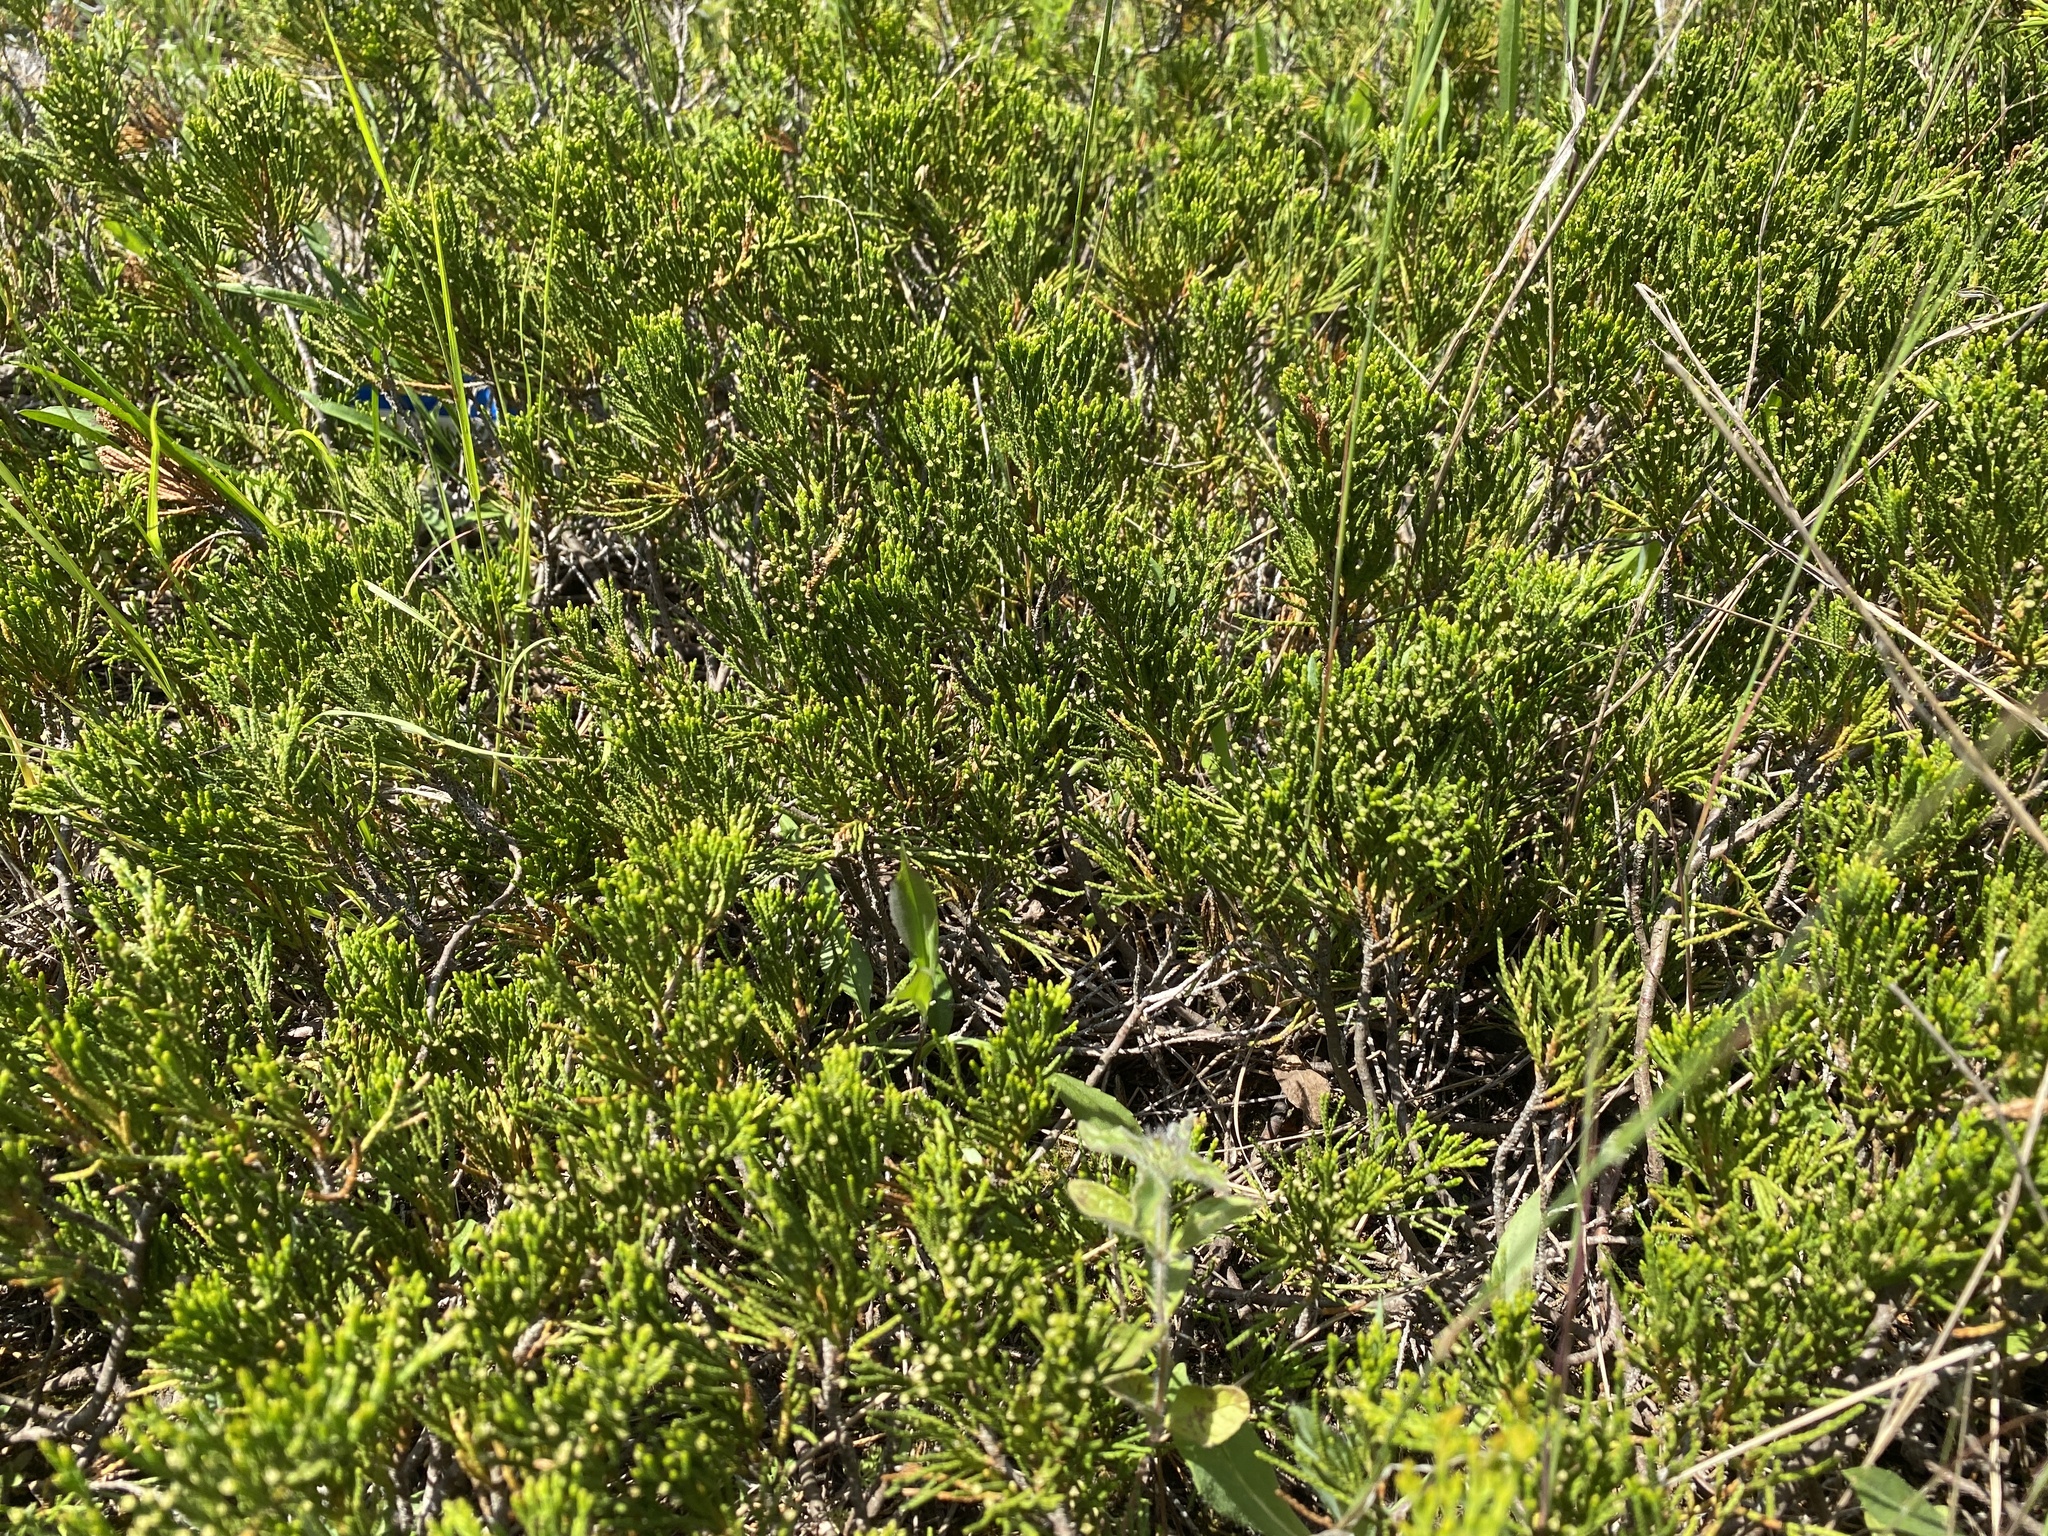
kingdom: Plantae
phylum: Tracheophyta
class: Pinopsida
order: Pinales
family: Cupressaceae
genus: Juniperus
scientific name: Juniperus horizontalis
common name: Creeping juniper
